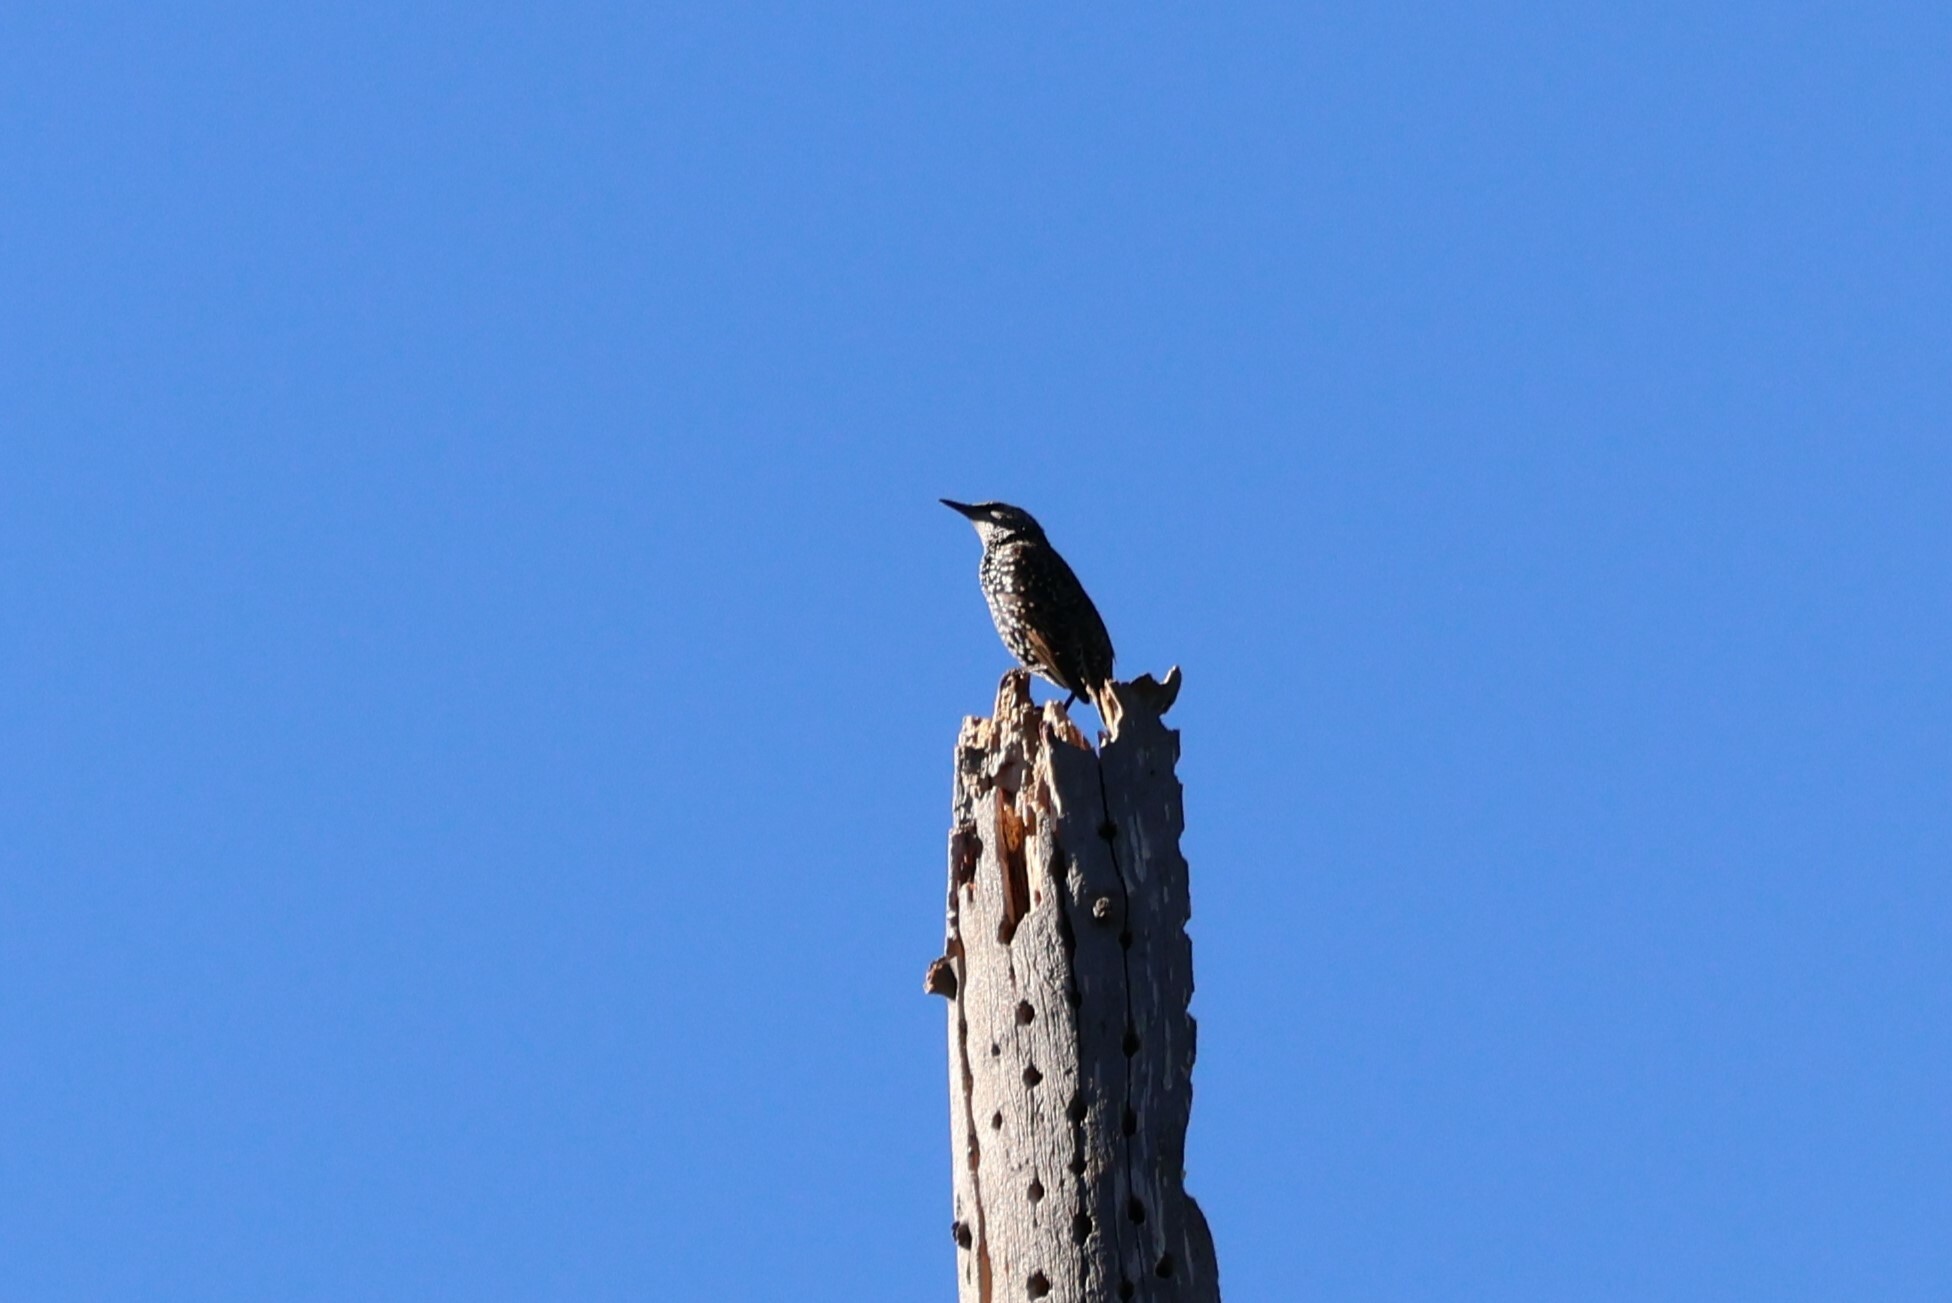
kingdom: Animalia
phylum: Chordata
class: Aves
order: Passeriformes
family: Sturnidae
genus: Sturnus
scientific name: Sturnus vulgaris
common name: Common starling
